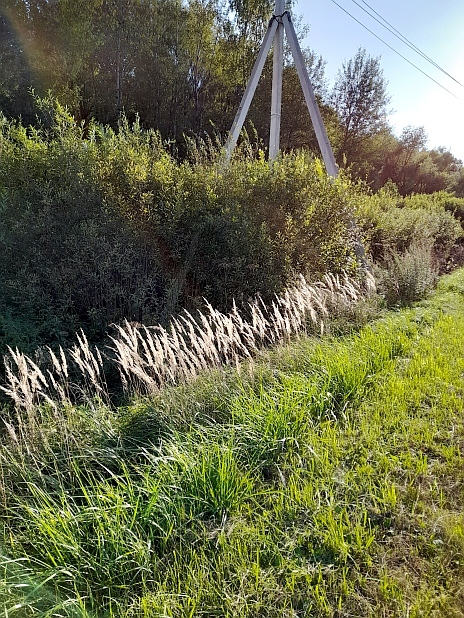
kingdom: Plantae
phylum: Tracheophyta
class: Liliopsida
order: Poales
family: Poaceae
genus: Calamagrostis
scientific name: Calamagrostis epigejos
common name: Wood small-reed
